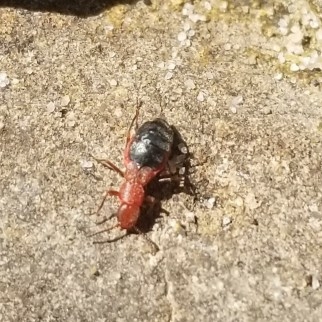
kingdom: Animalia
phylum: Arthropoda
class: Insecta
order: Coleoptera
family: Melyridae
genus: Endeodes
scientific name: Endeodes insularis
